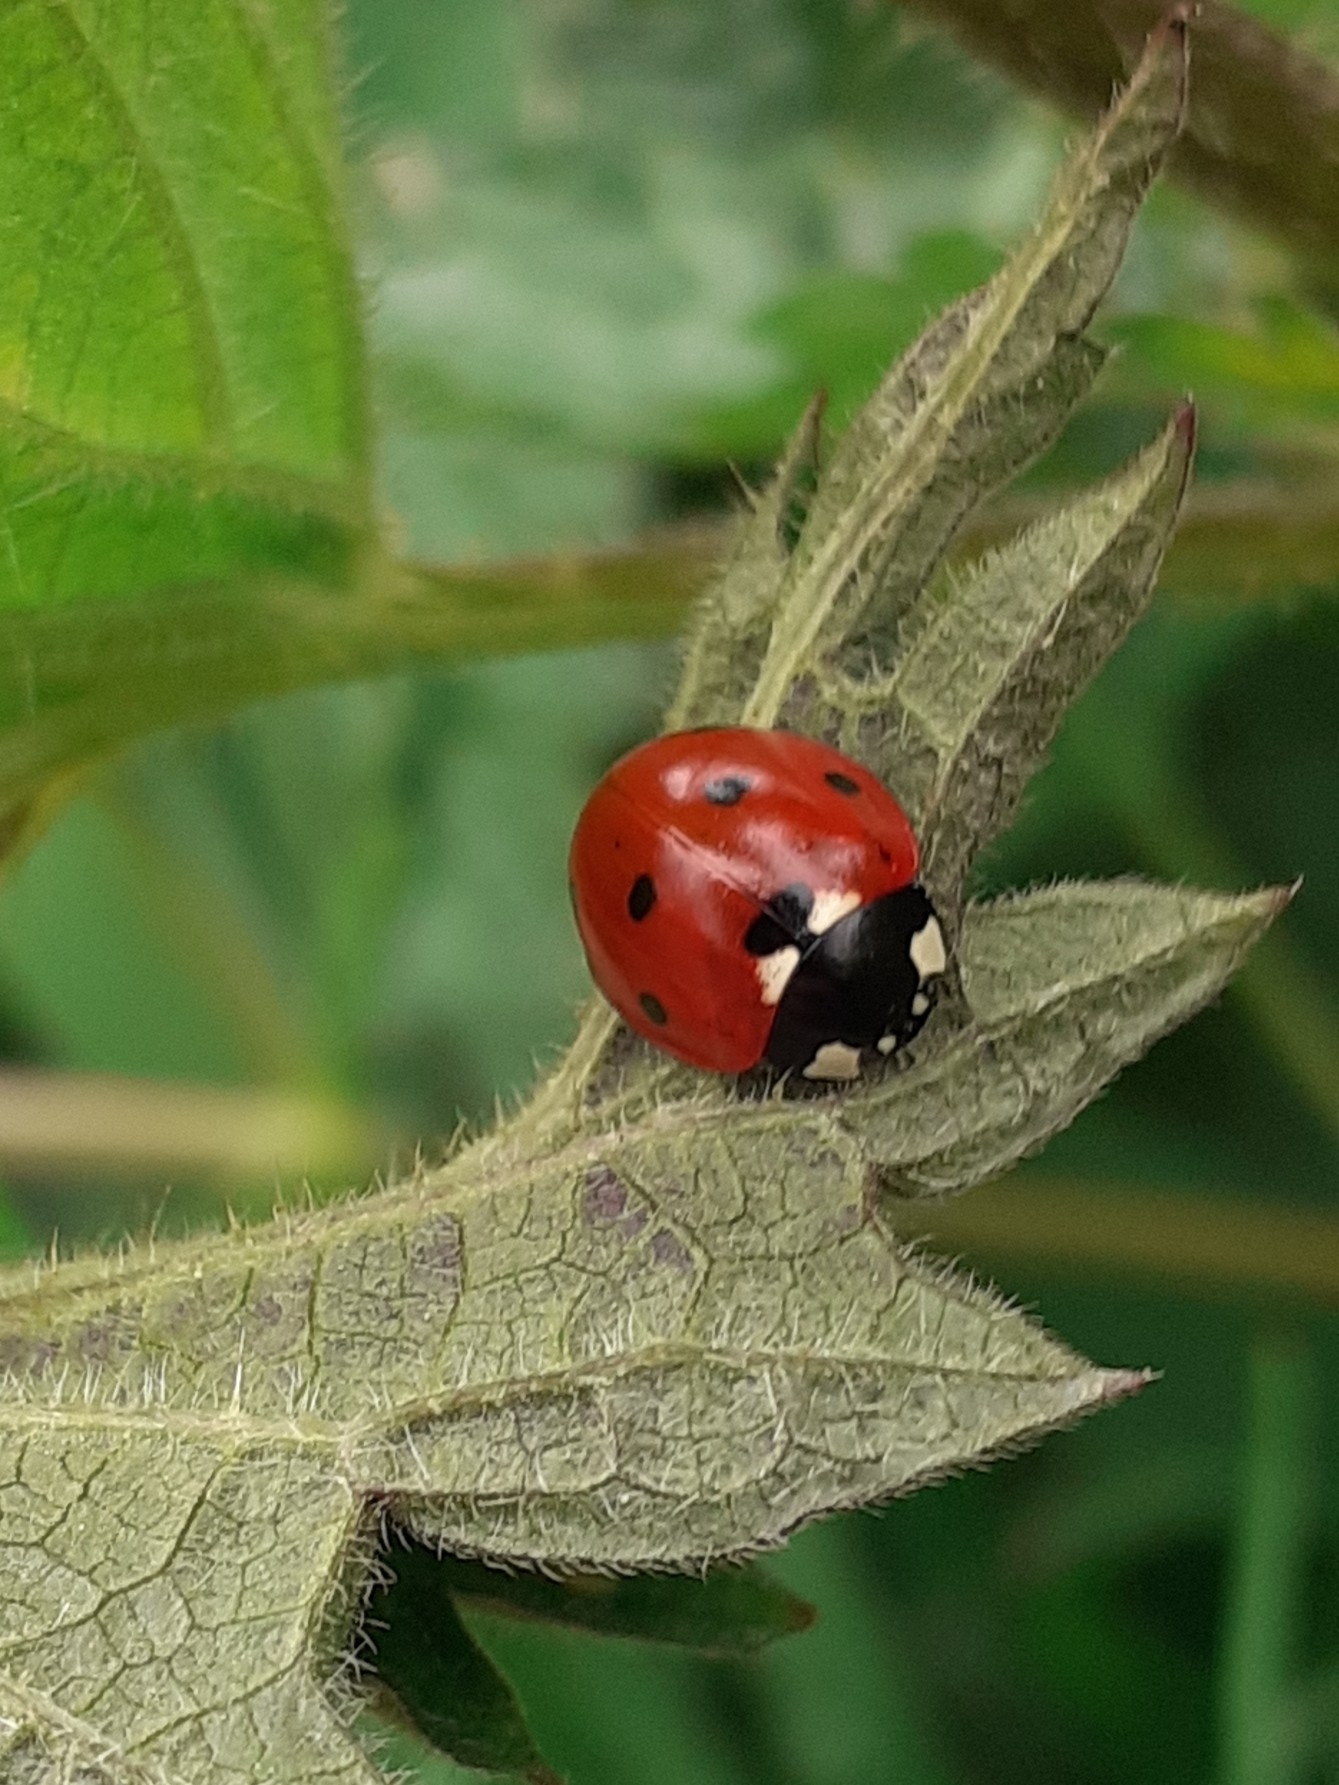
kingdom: Animalia
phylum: Arthropoda
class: Insecta
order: Coleoptera
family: Coccinellidae
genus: Coccinella
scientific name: Coccinella septempunctata
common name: Sevenspotted lady beetle
